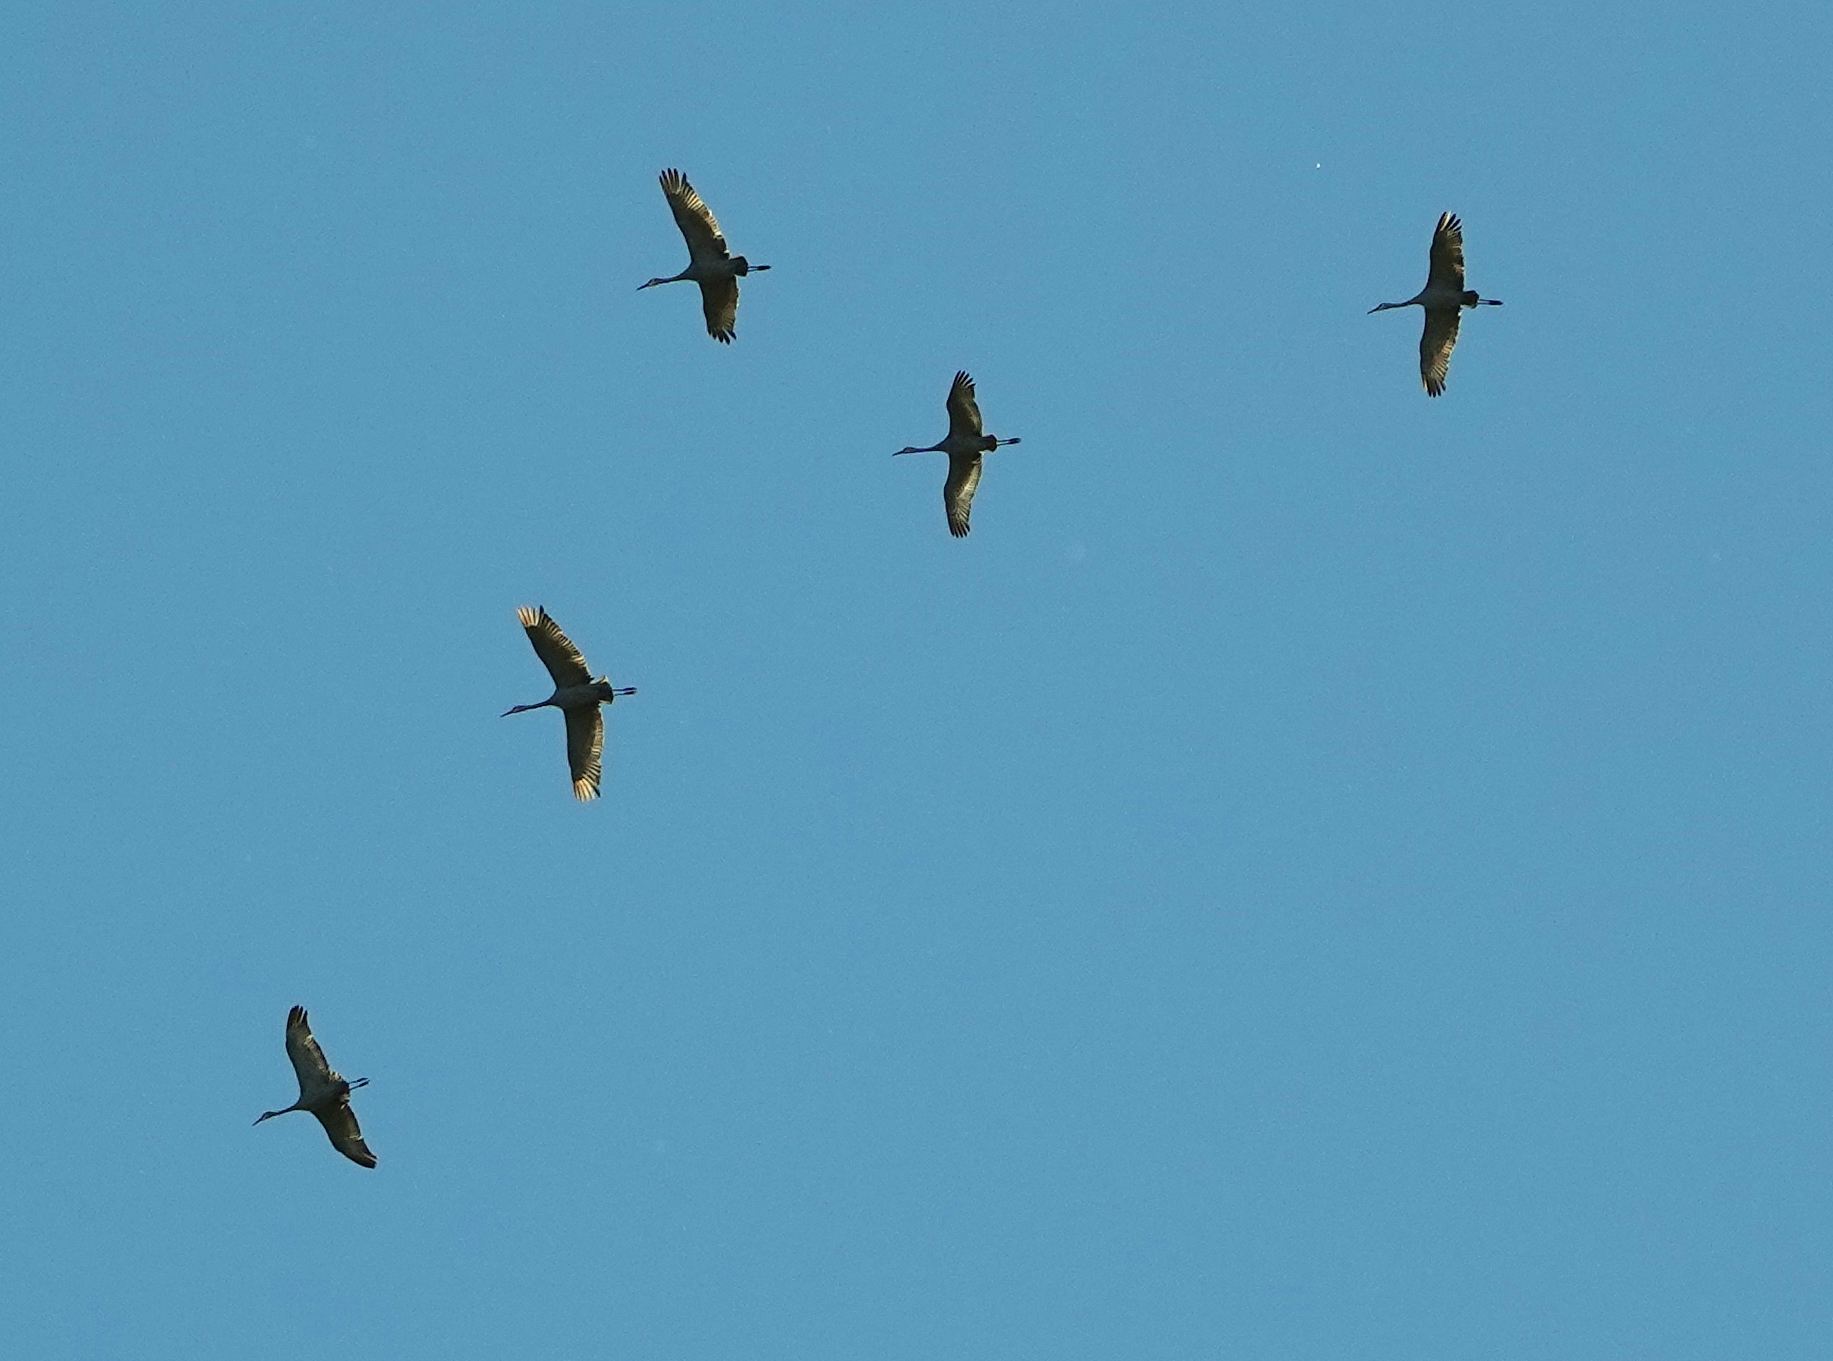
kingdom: Animalia
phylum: Chordata
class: Aves
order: Gruiformes
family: Gruidae
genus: Grus
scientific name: Grus canadensis
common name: Sandhill crane
